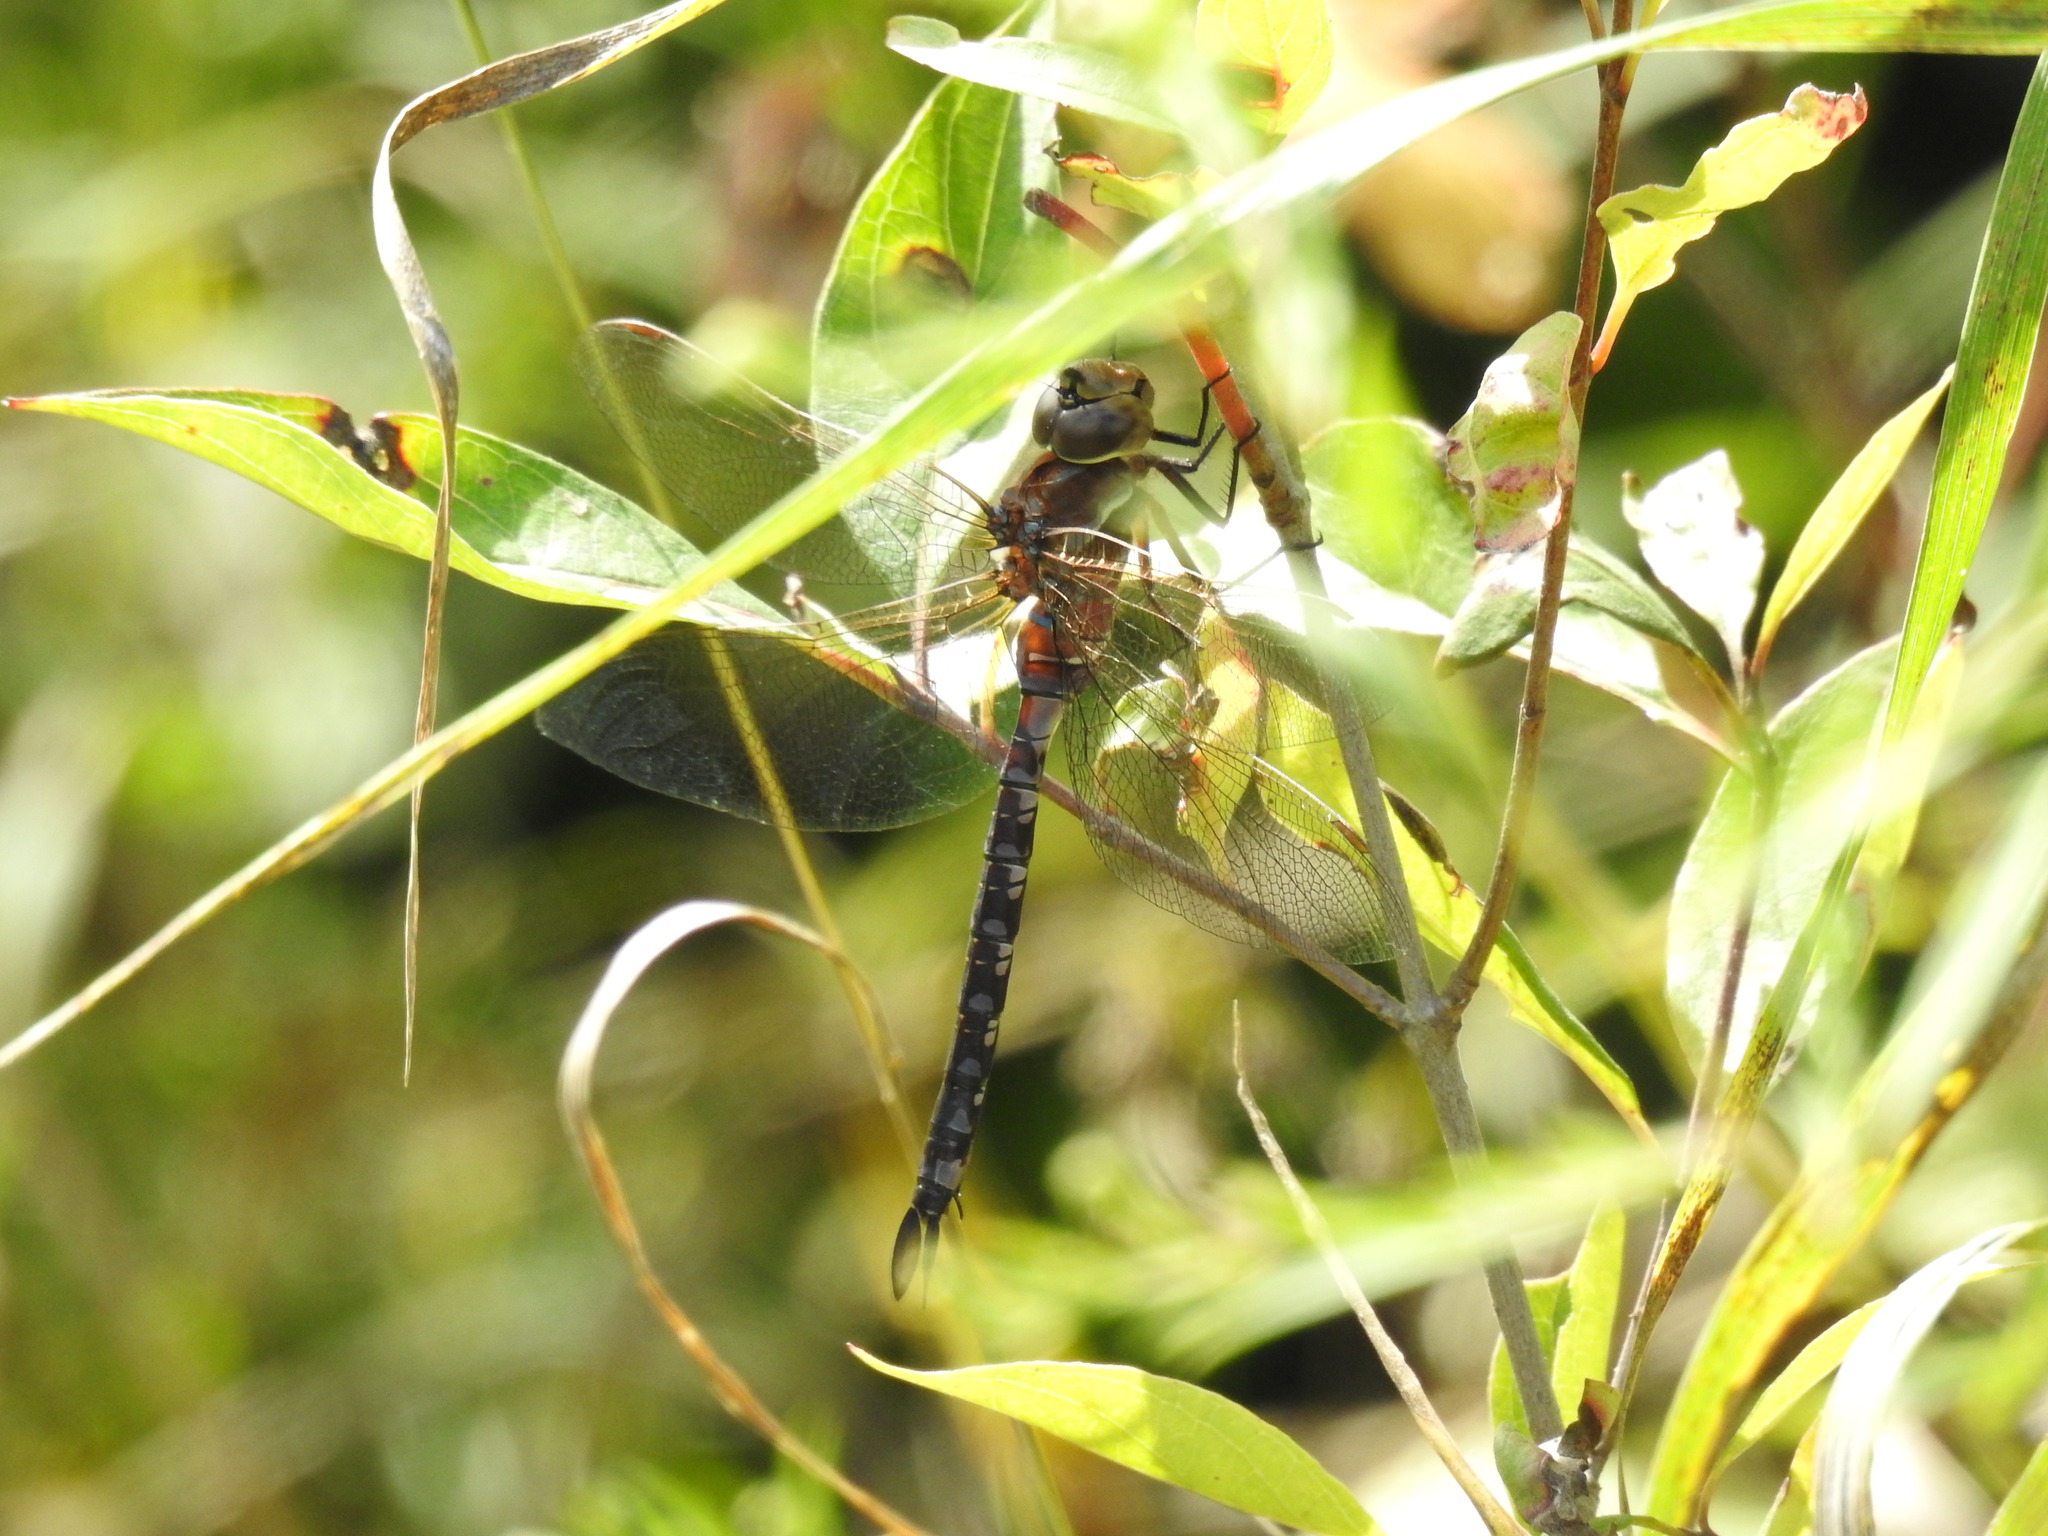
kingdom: Animalia
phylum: Arthropoda
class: Insecta
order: Odonata
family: Aeshnidae
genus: Aeshna
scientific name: Aeshna constricta
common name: Lance-tipped darner
